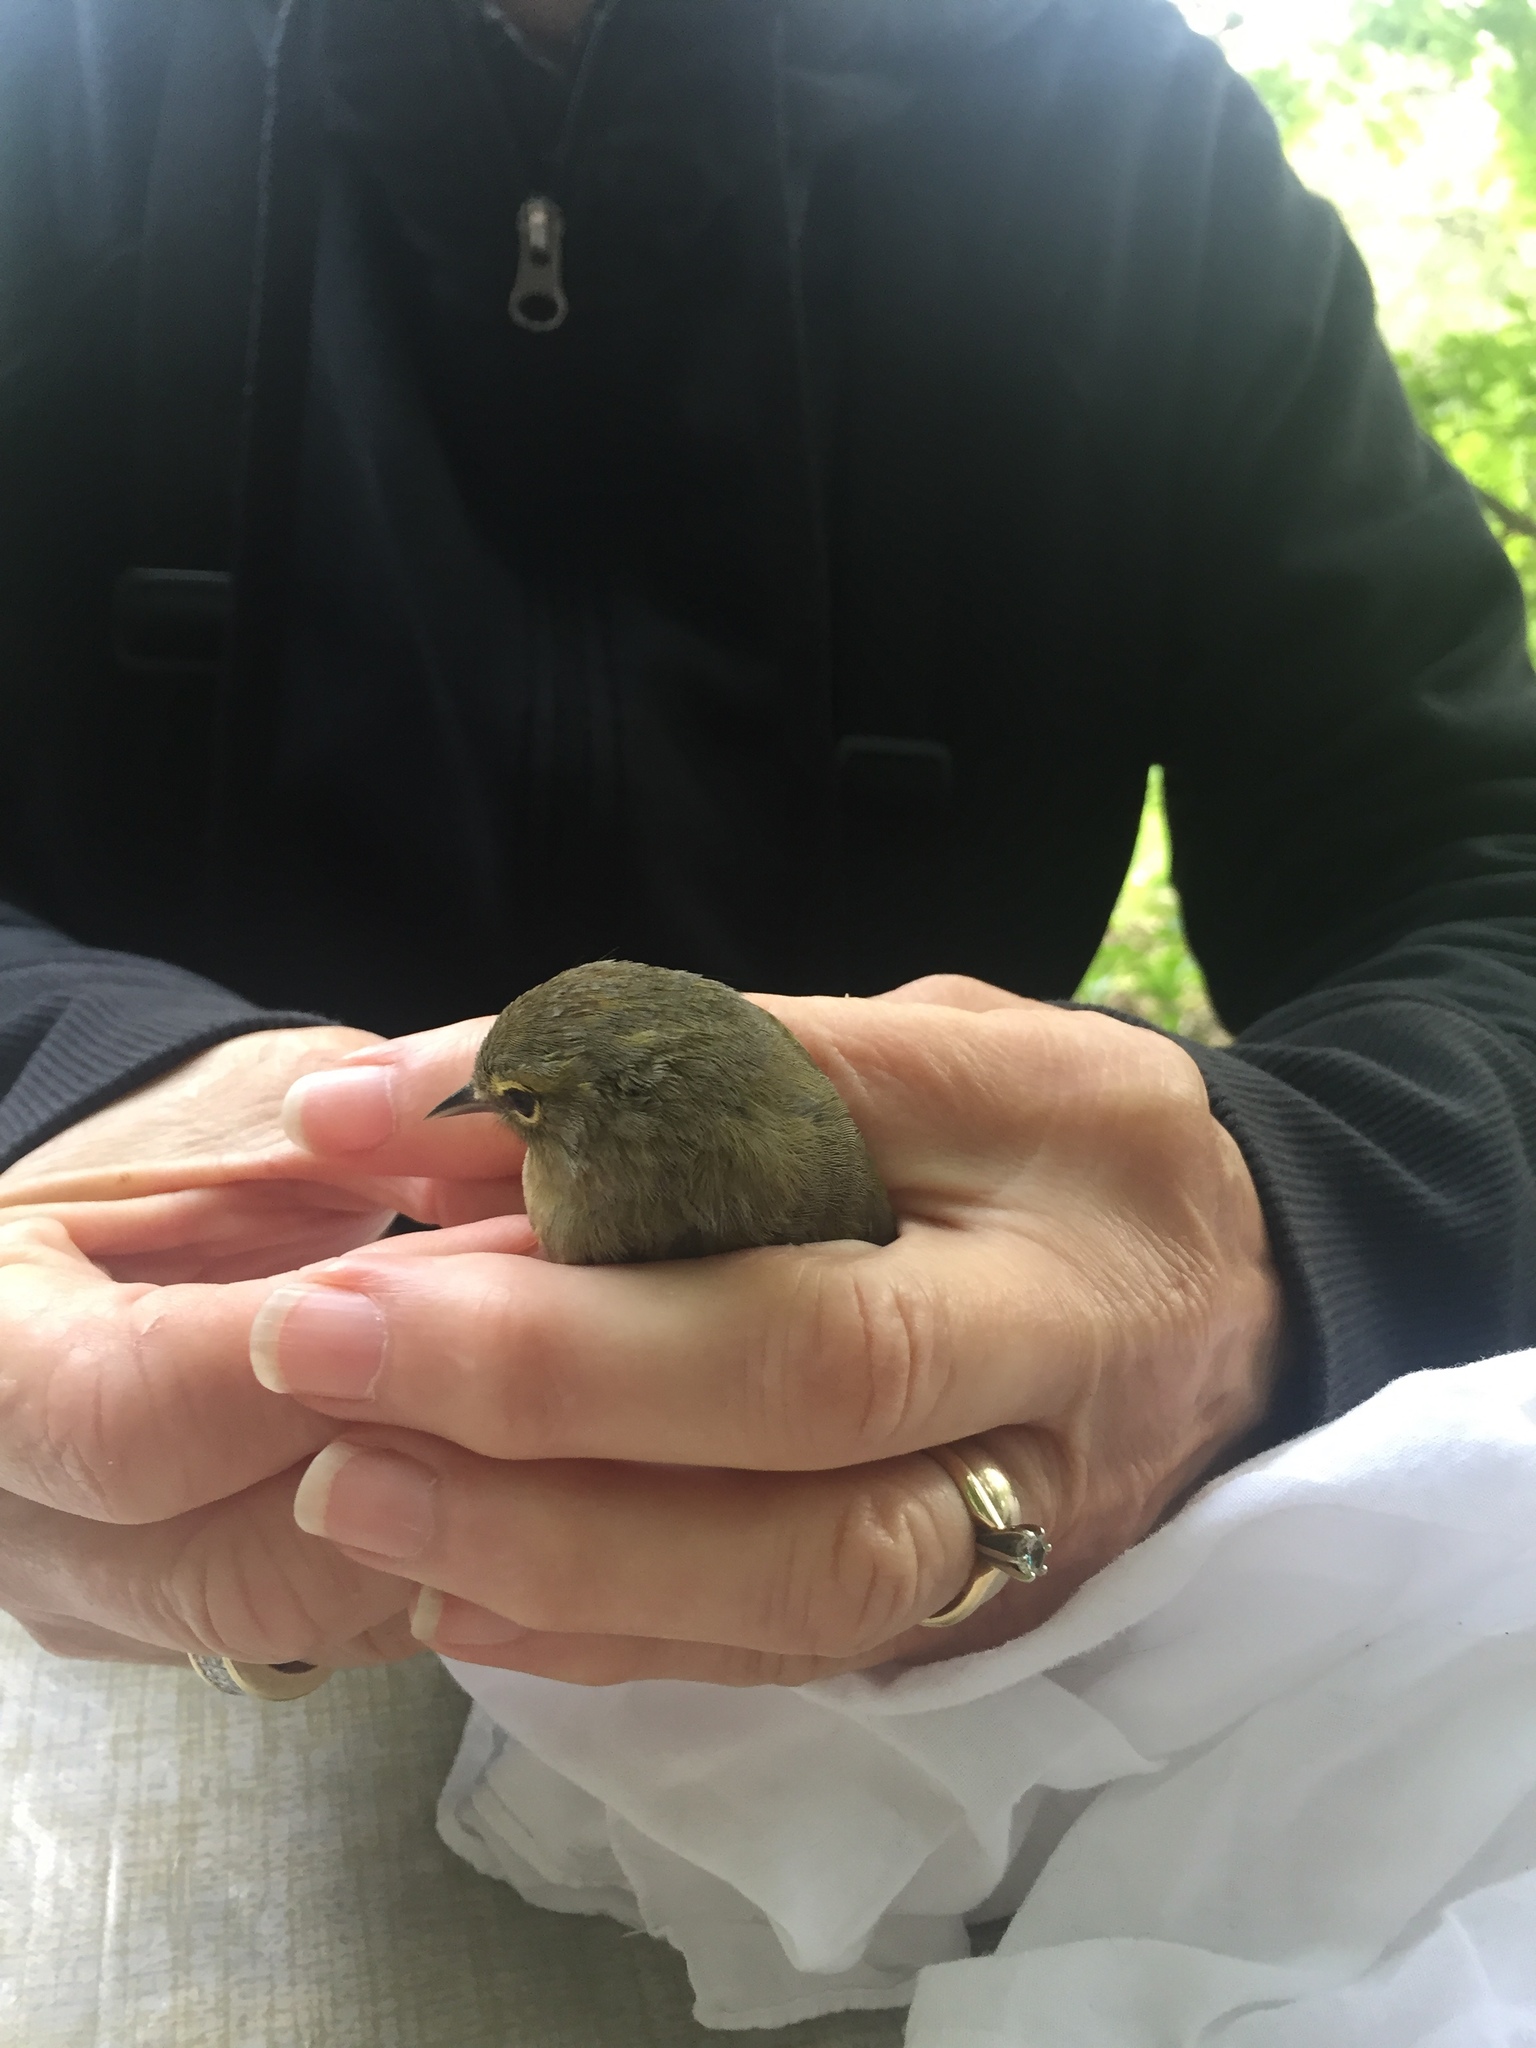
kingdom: Animalia
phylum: Chordata
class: Aves
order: Passeriformes
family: Parulidae
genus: Leiothlypis
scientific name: Leiothlypis celata
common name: Orange-crowned warbler
